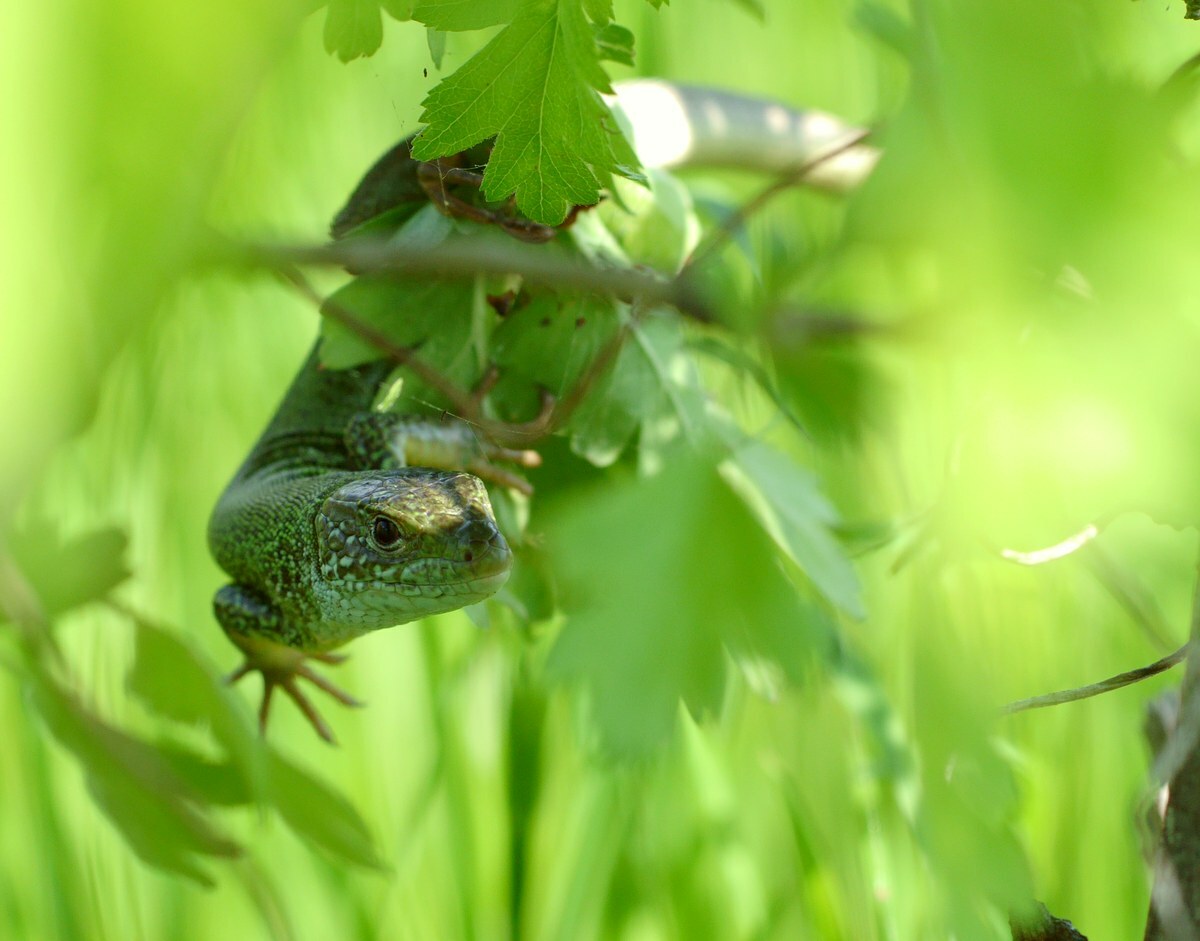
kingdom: Animalia
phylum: Chordata
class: Squamata
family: Lacertidae
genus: Lacerta
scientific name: Lacerta viridis
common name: European green lizard
